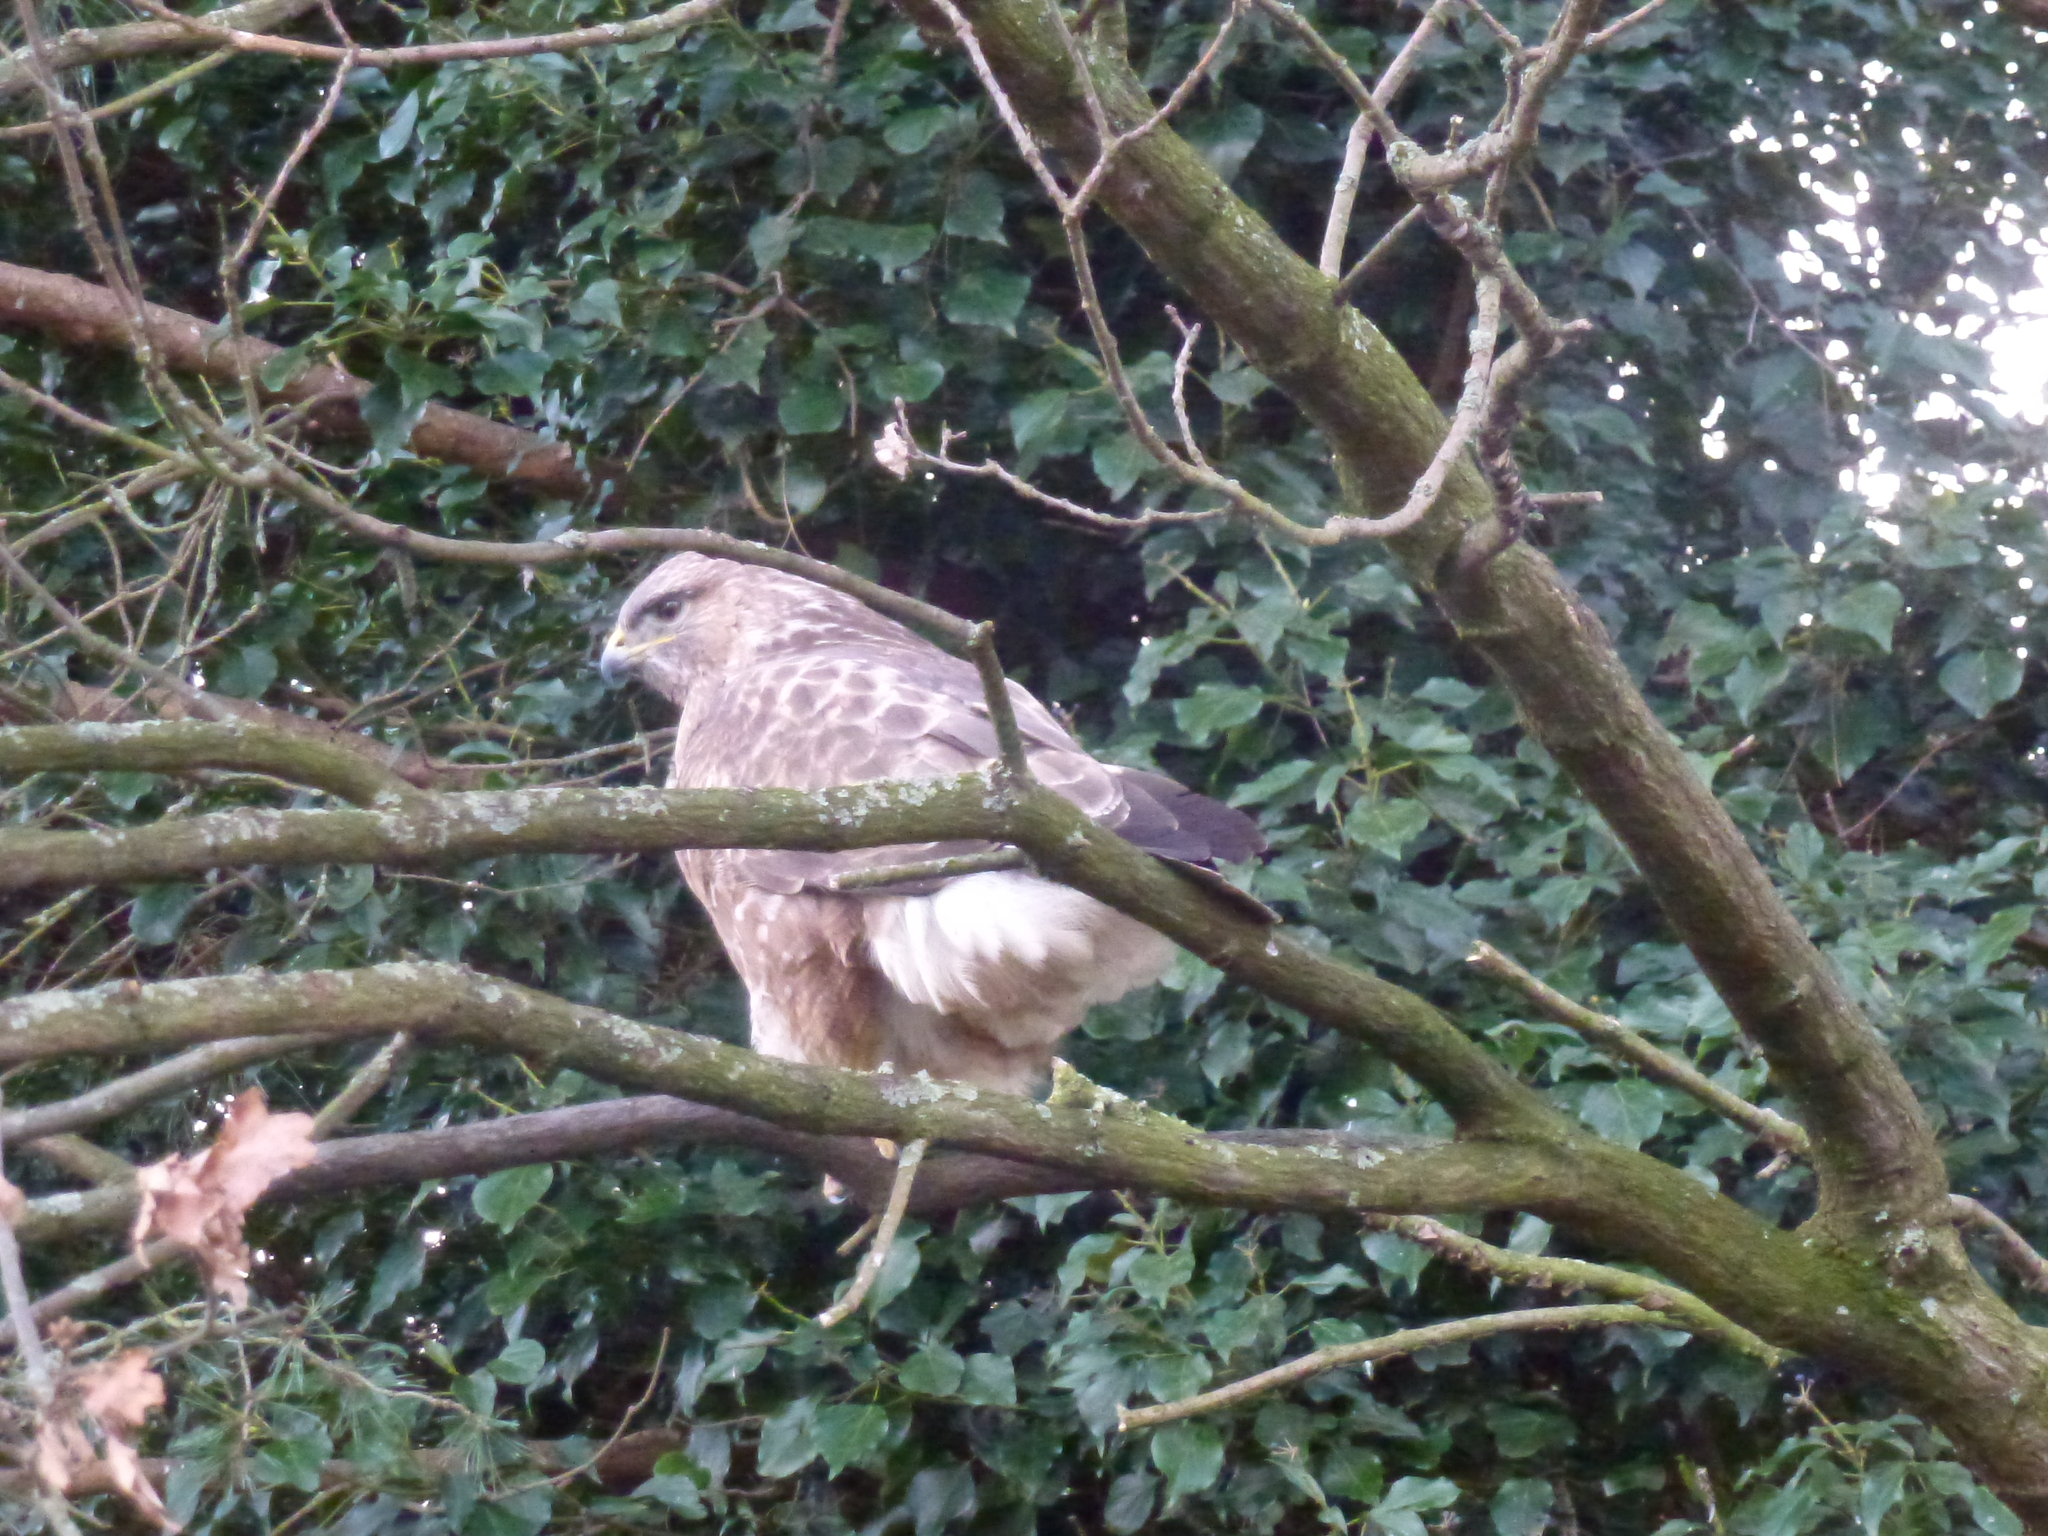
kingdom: Animalia
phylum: Chordata
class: Aves
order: Accipitriformes
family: Accipitridae
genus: Buteo
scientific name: Buteo buteo
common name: Common buzzard
